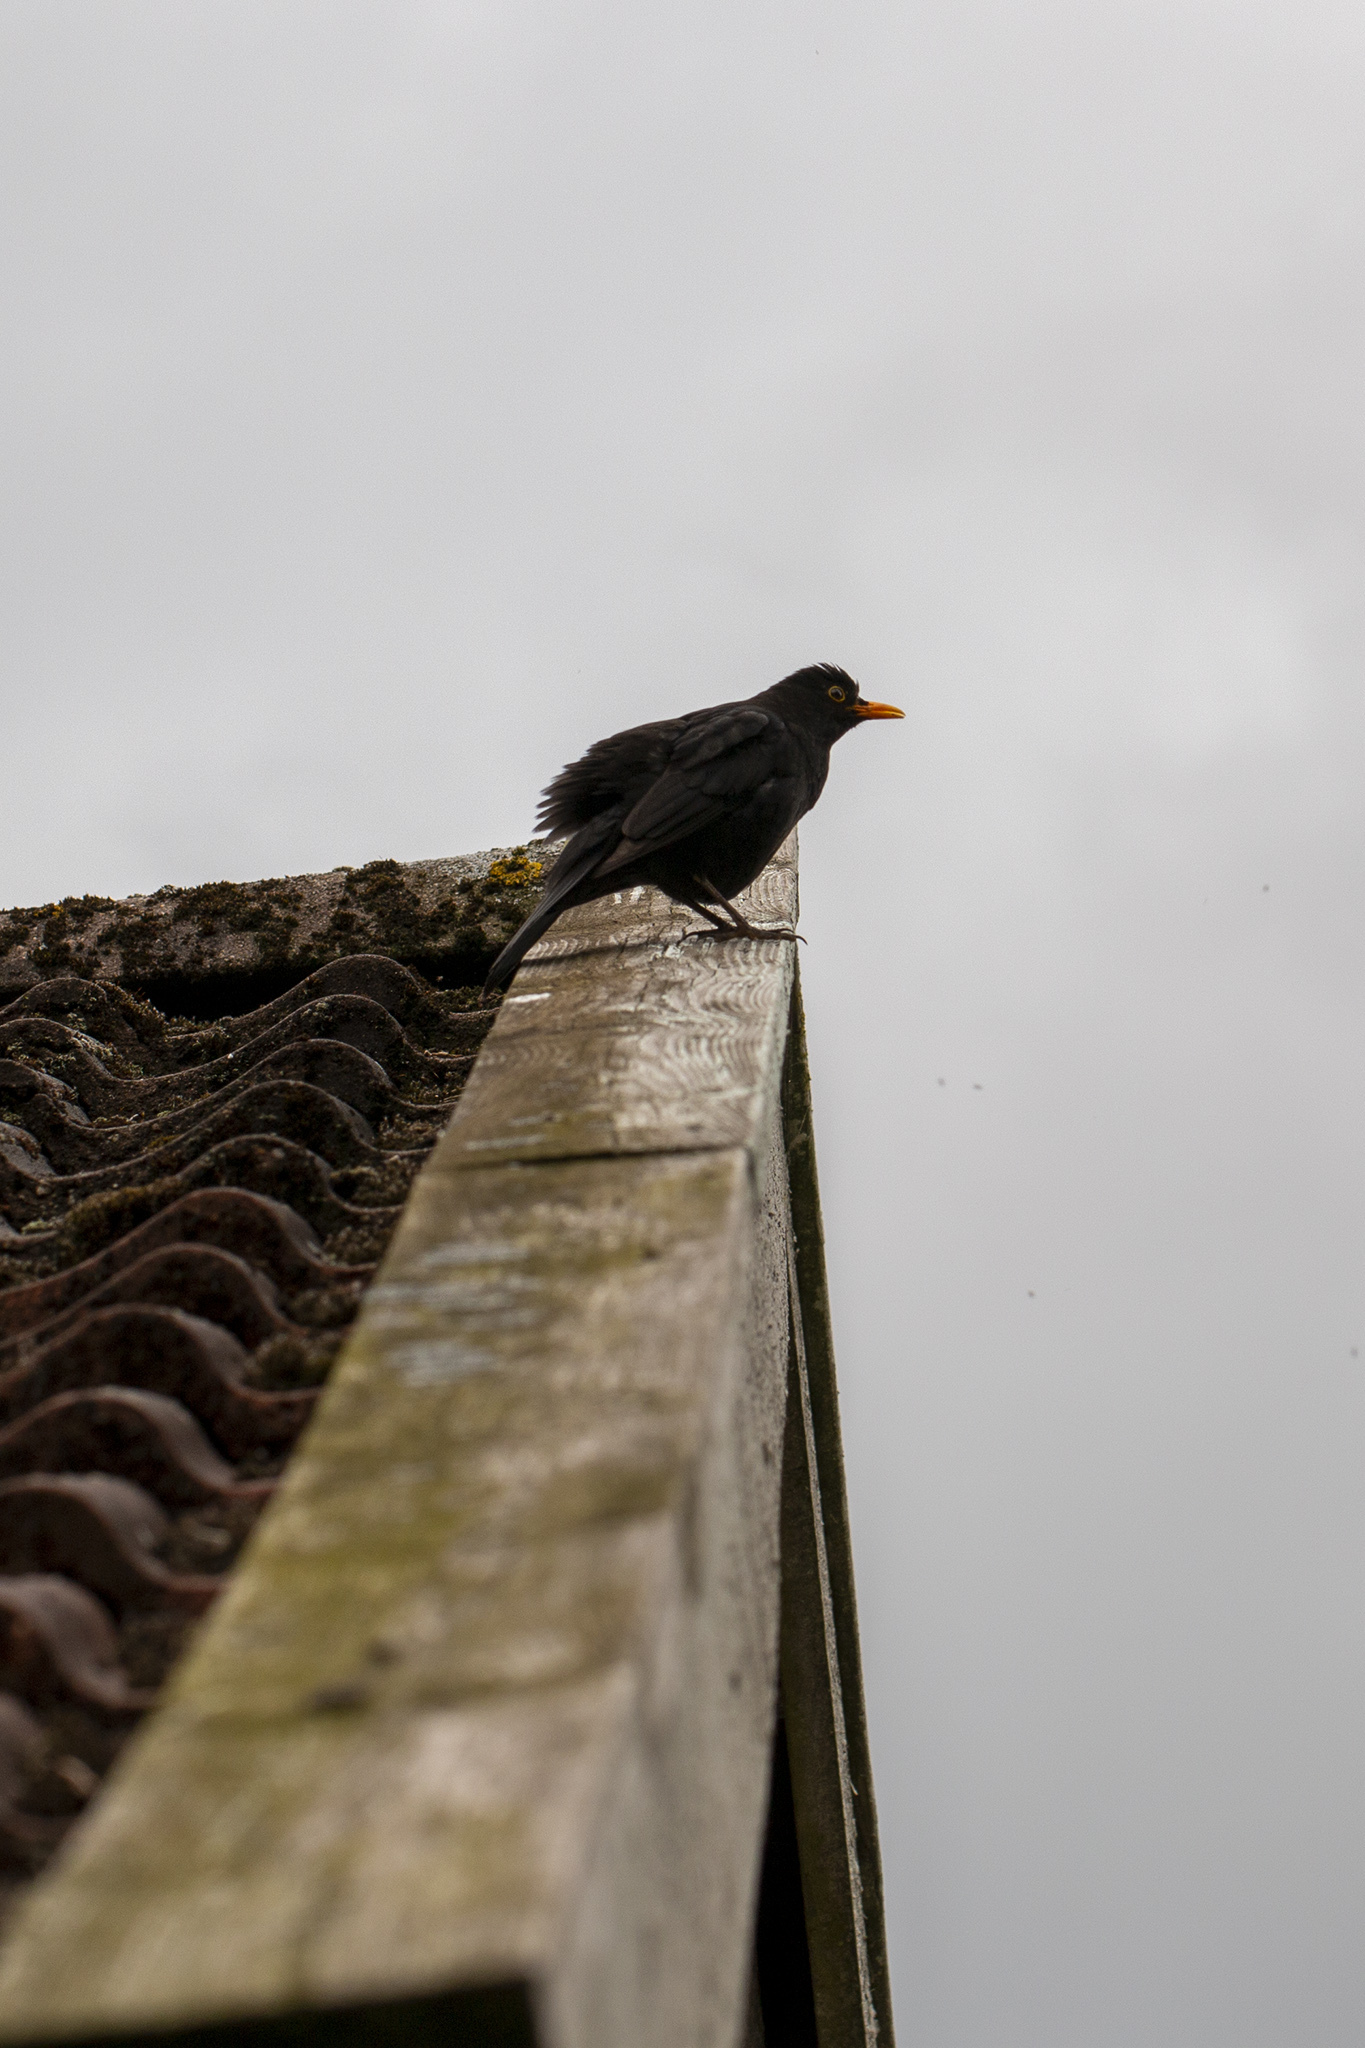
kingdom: Animalia
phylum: Chordata
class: Aves
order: Passeriformes
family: Turdidae
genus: Turdus
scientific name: Turdus merula
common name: Common blackbird
